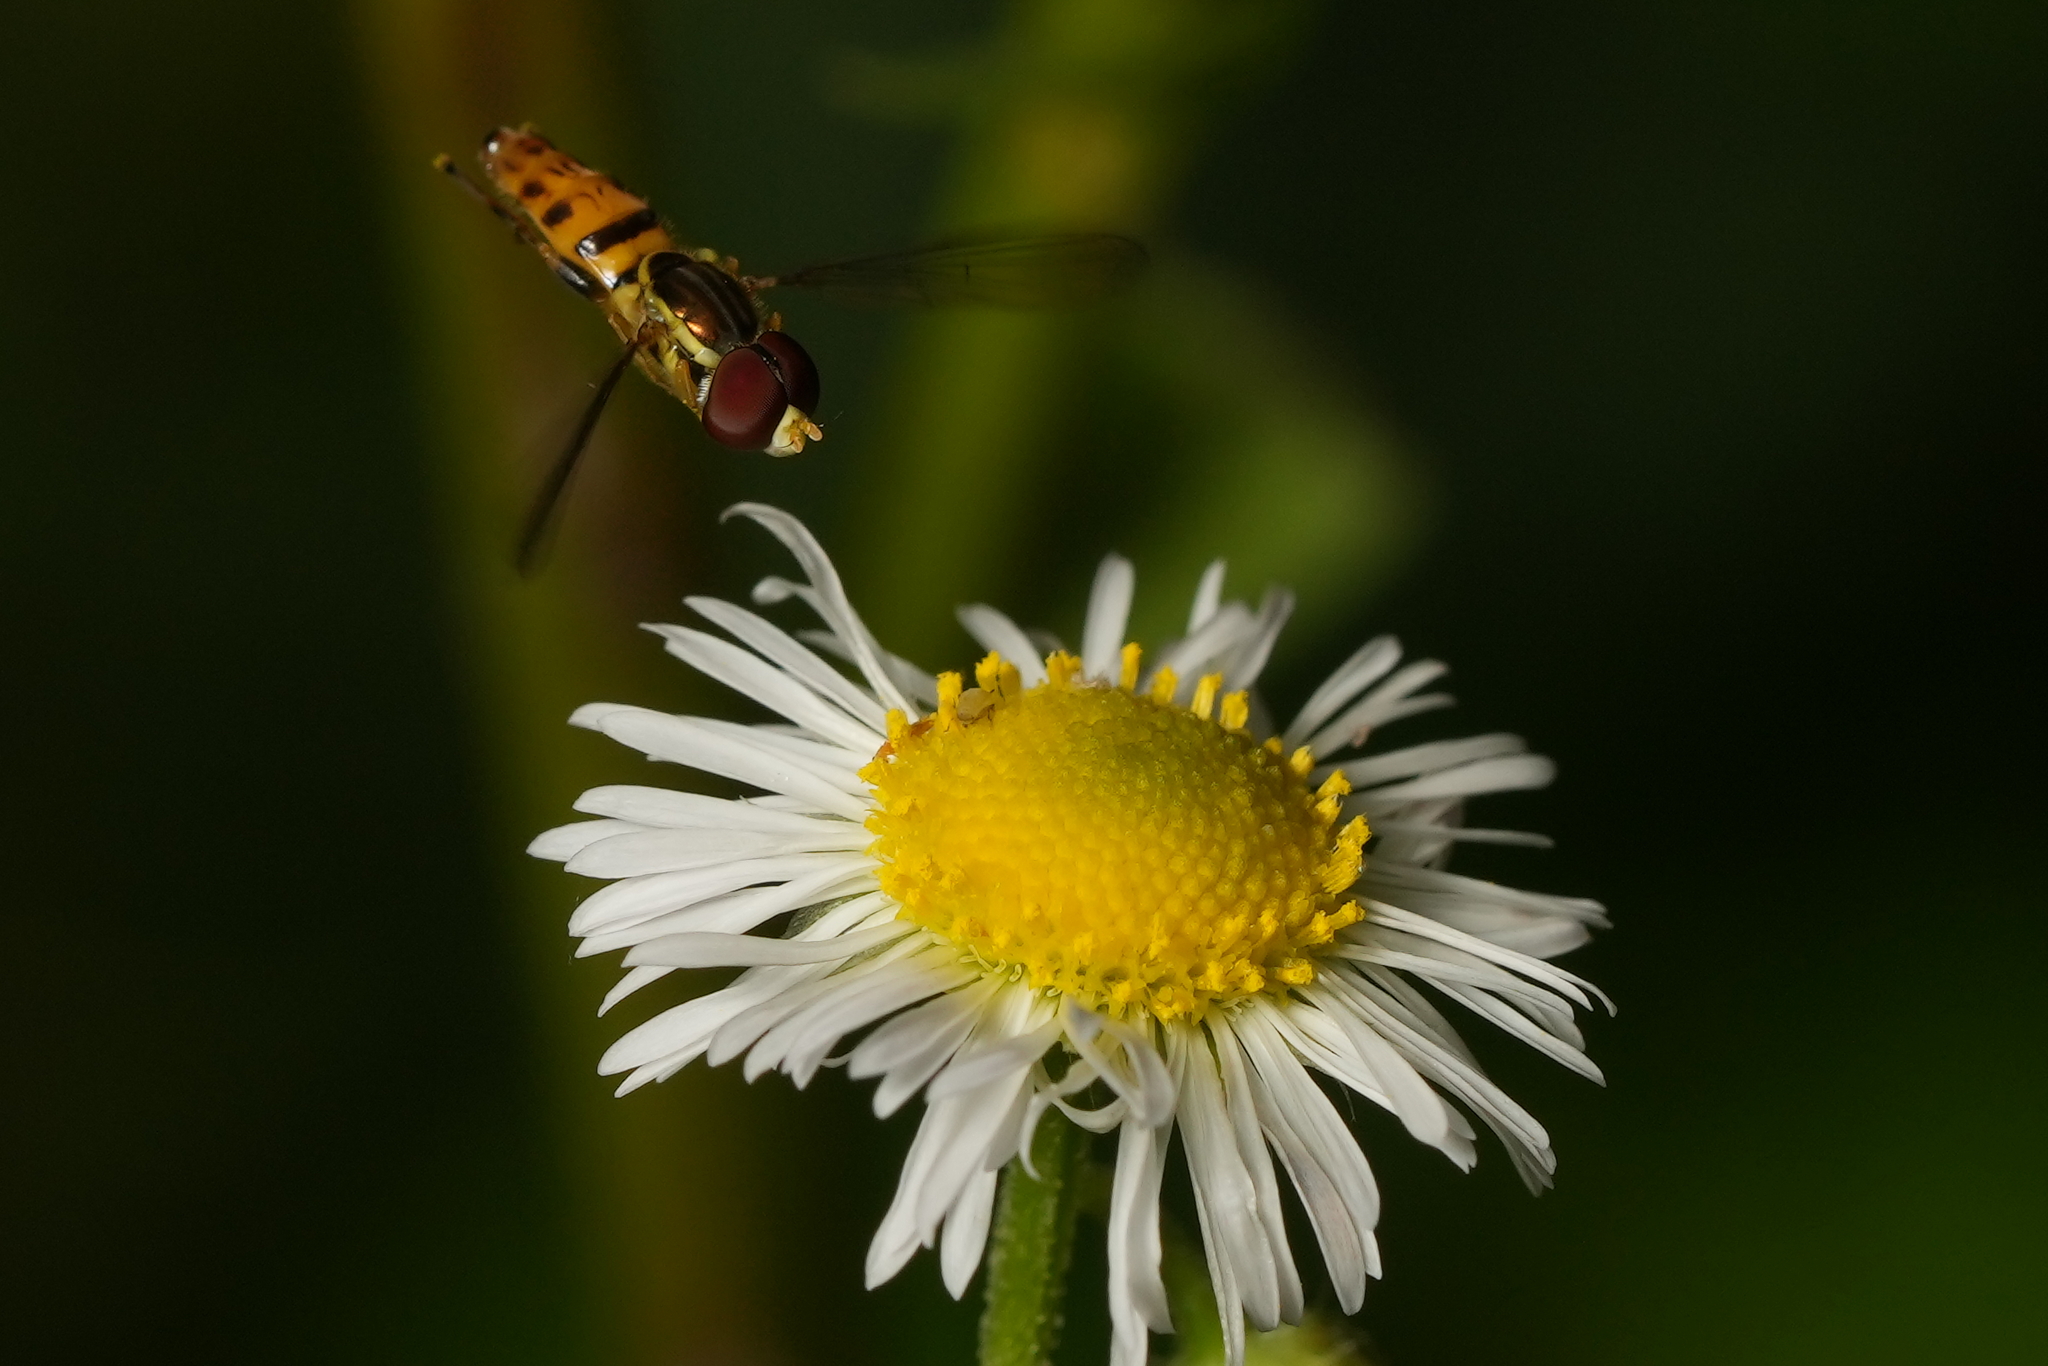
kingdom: Animalia
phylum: Arthropoda
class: Insecta
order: Diptera
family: Syrphidae
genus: Toxomerus
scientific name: Toxomerus geminatus
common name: Eastern calligrapher
